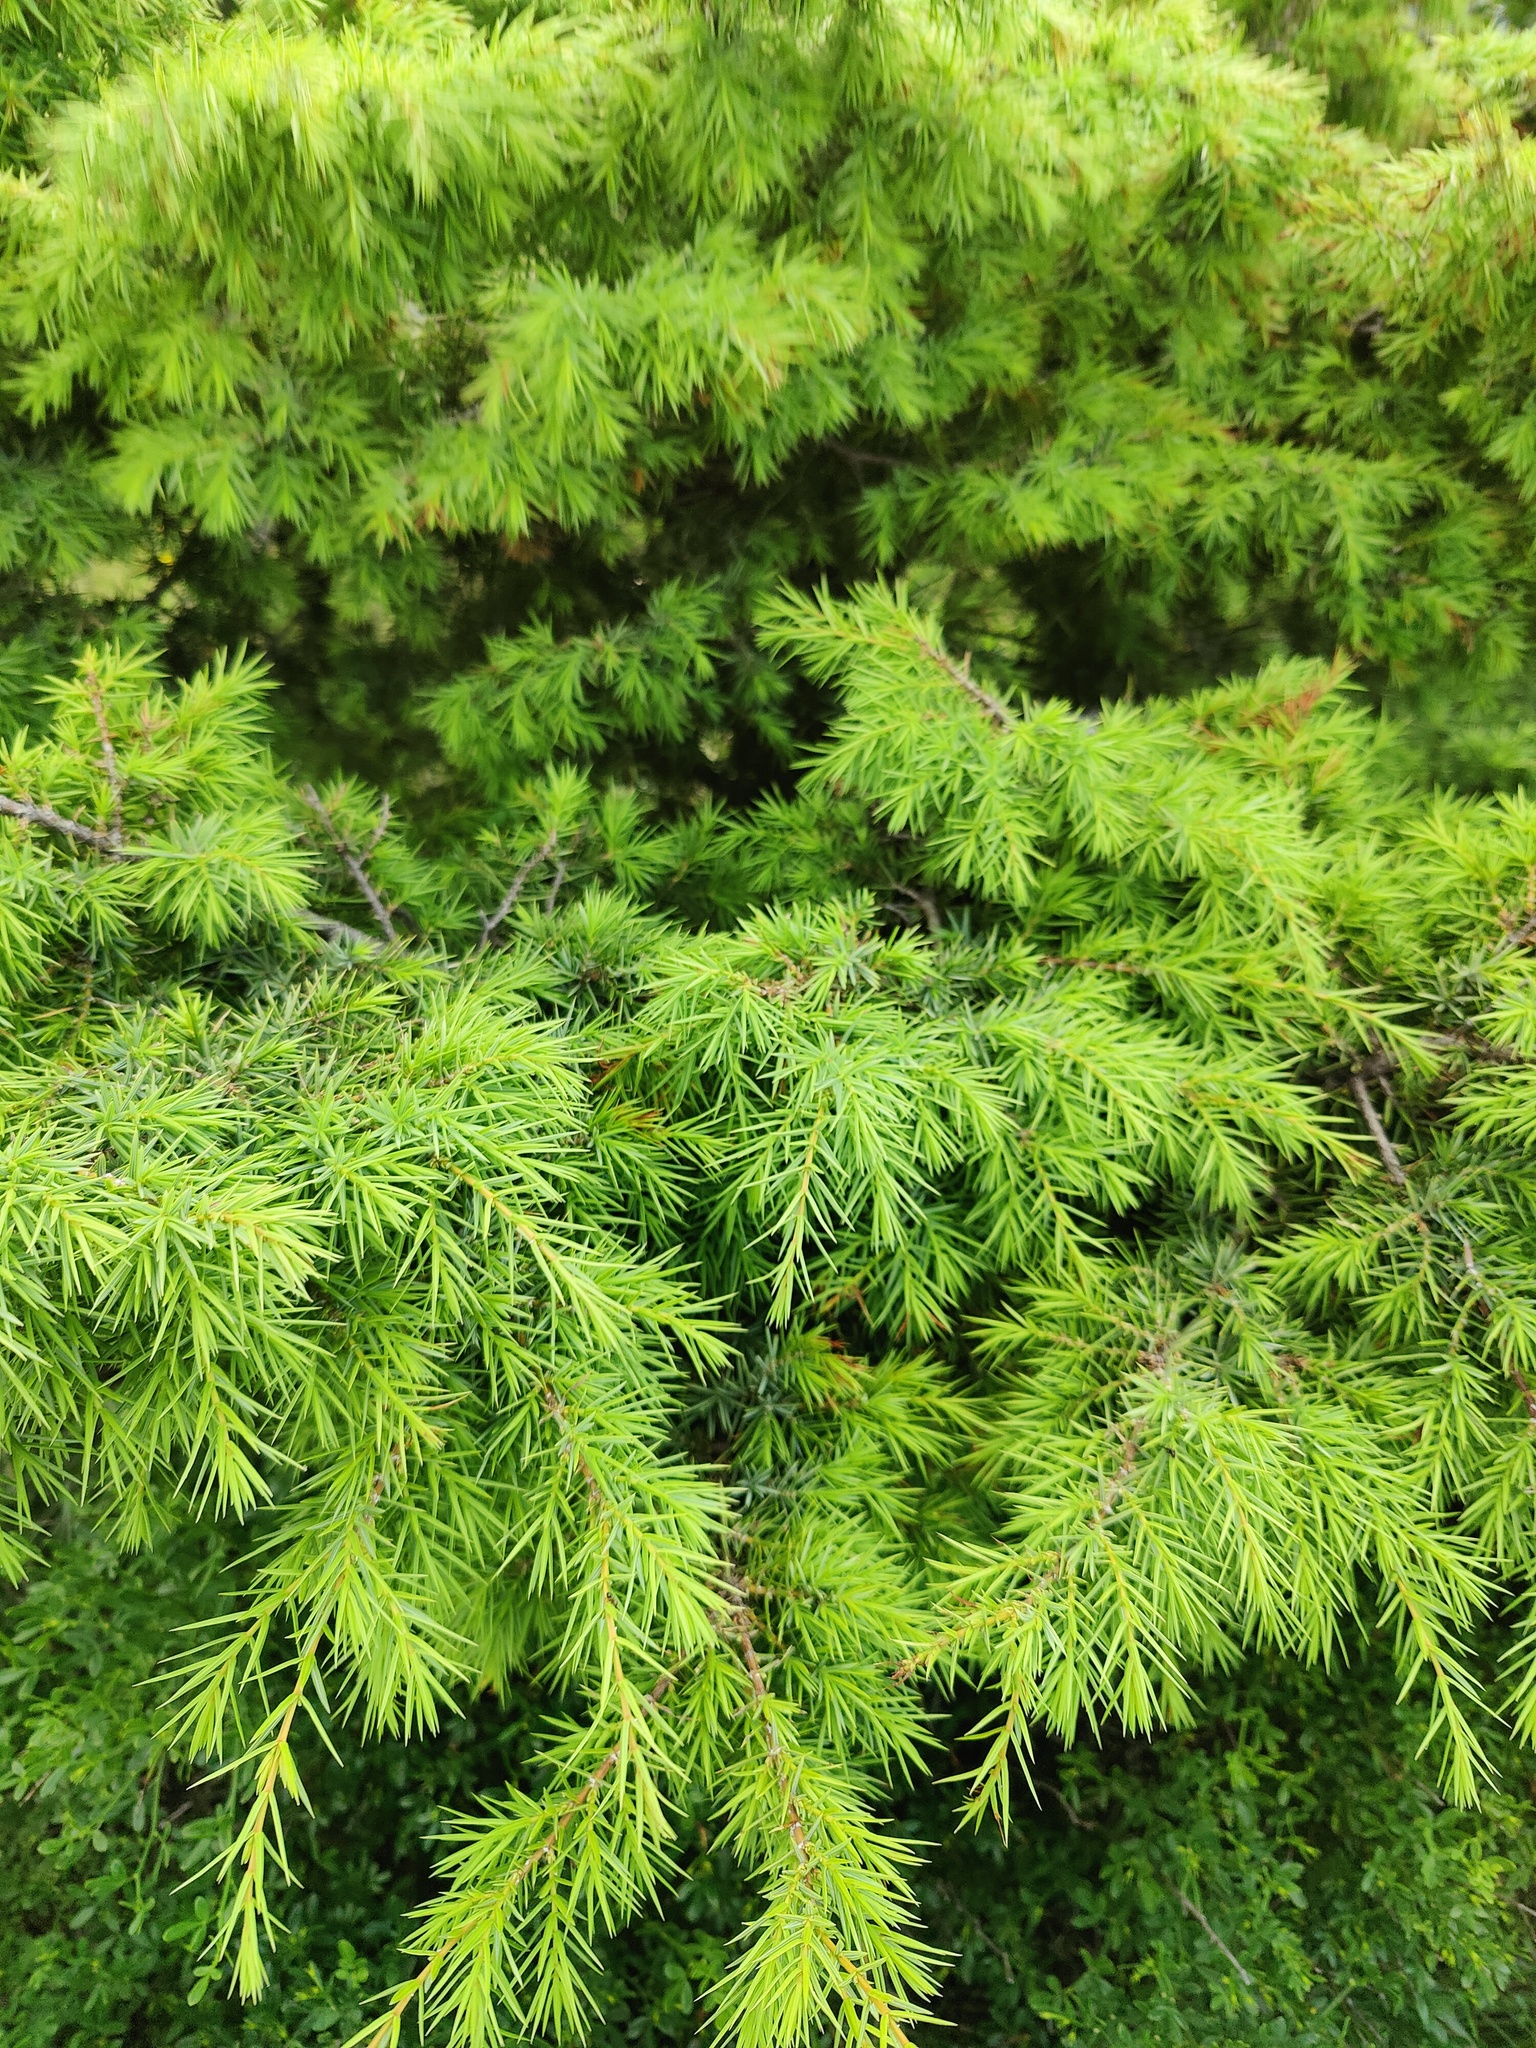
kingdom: Plantae
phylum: Tracheophyta
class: Pinopsida
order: Pinales
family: Cupressaceae
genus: Juniperus
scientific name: Juniperus oxycedrus
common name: Prickly juniper
